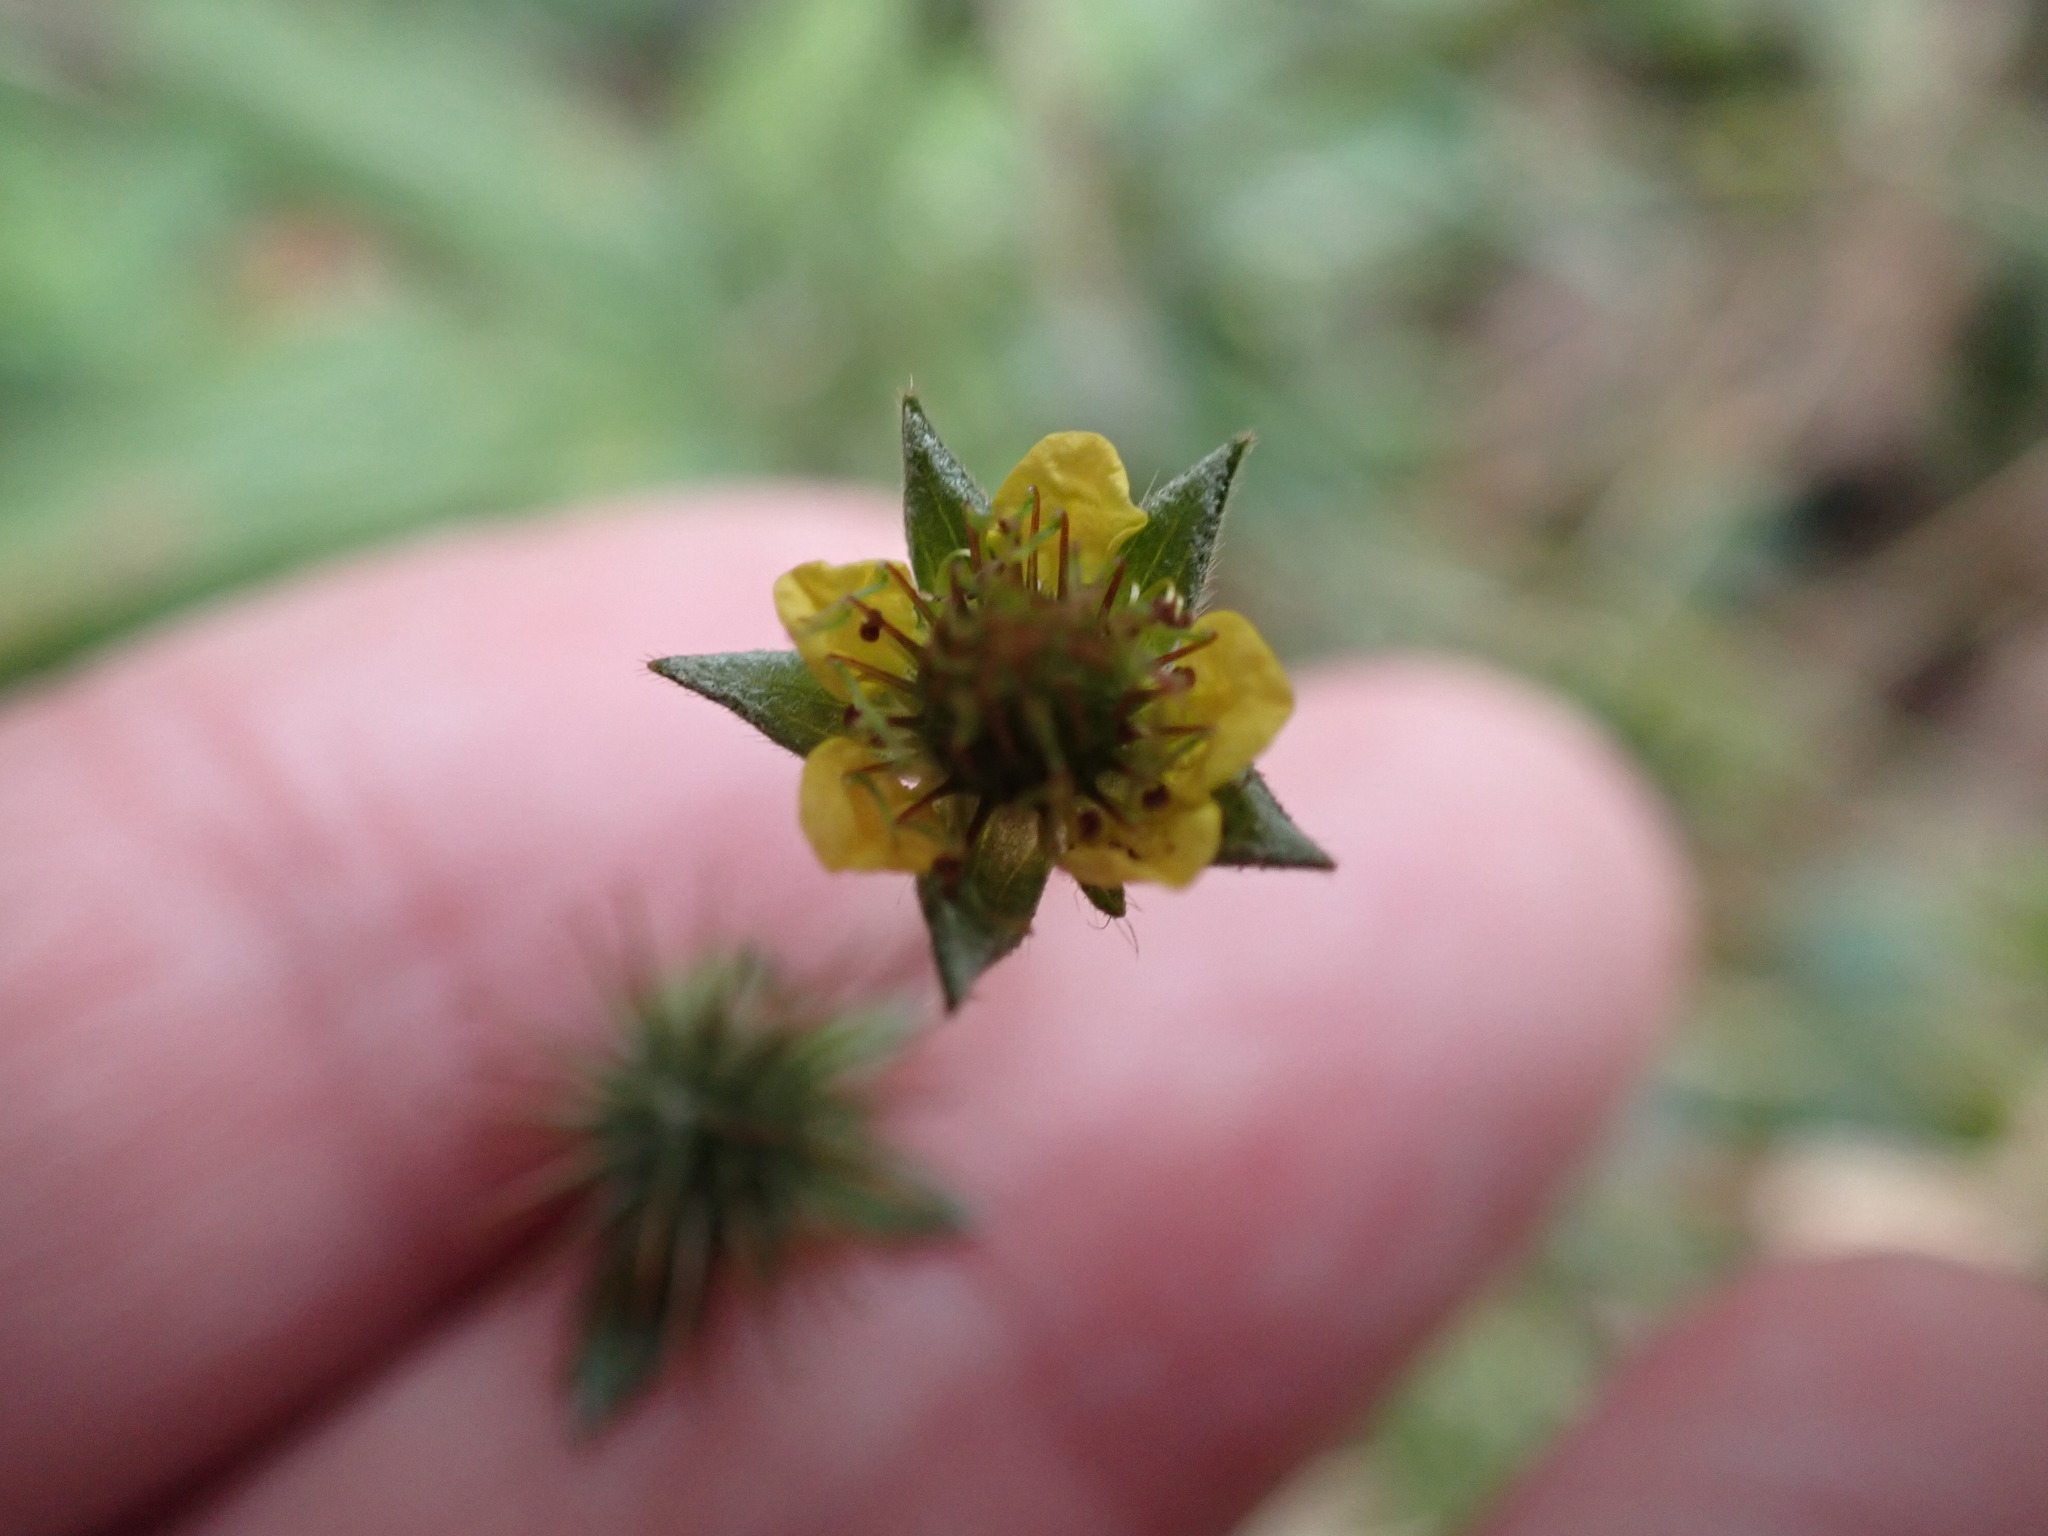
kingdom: Plantae
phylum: Tracheophyta
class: Magnoliopsida
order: Rosales
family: Rosaceae
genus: Geum
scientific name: Geum urbanum
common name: Wood avens
